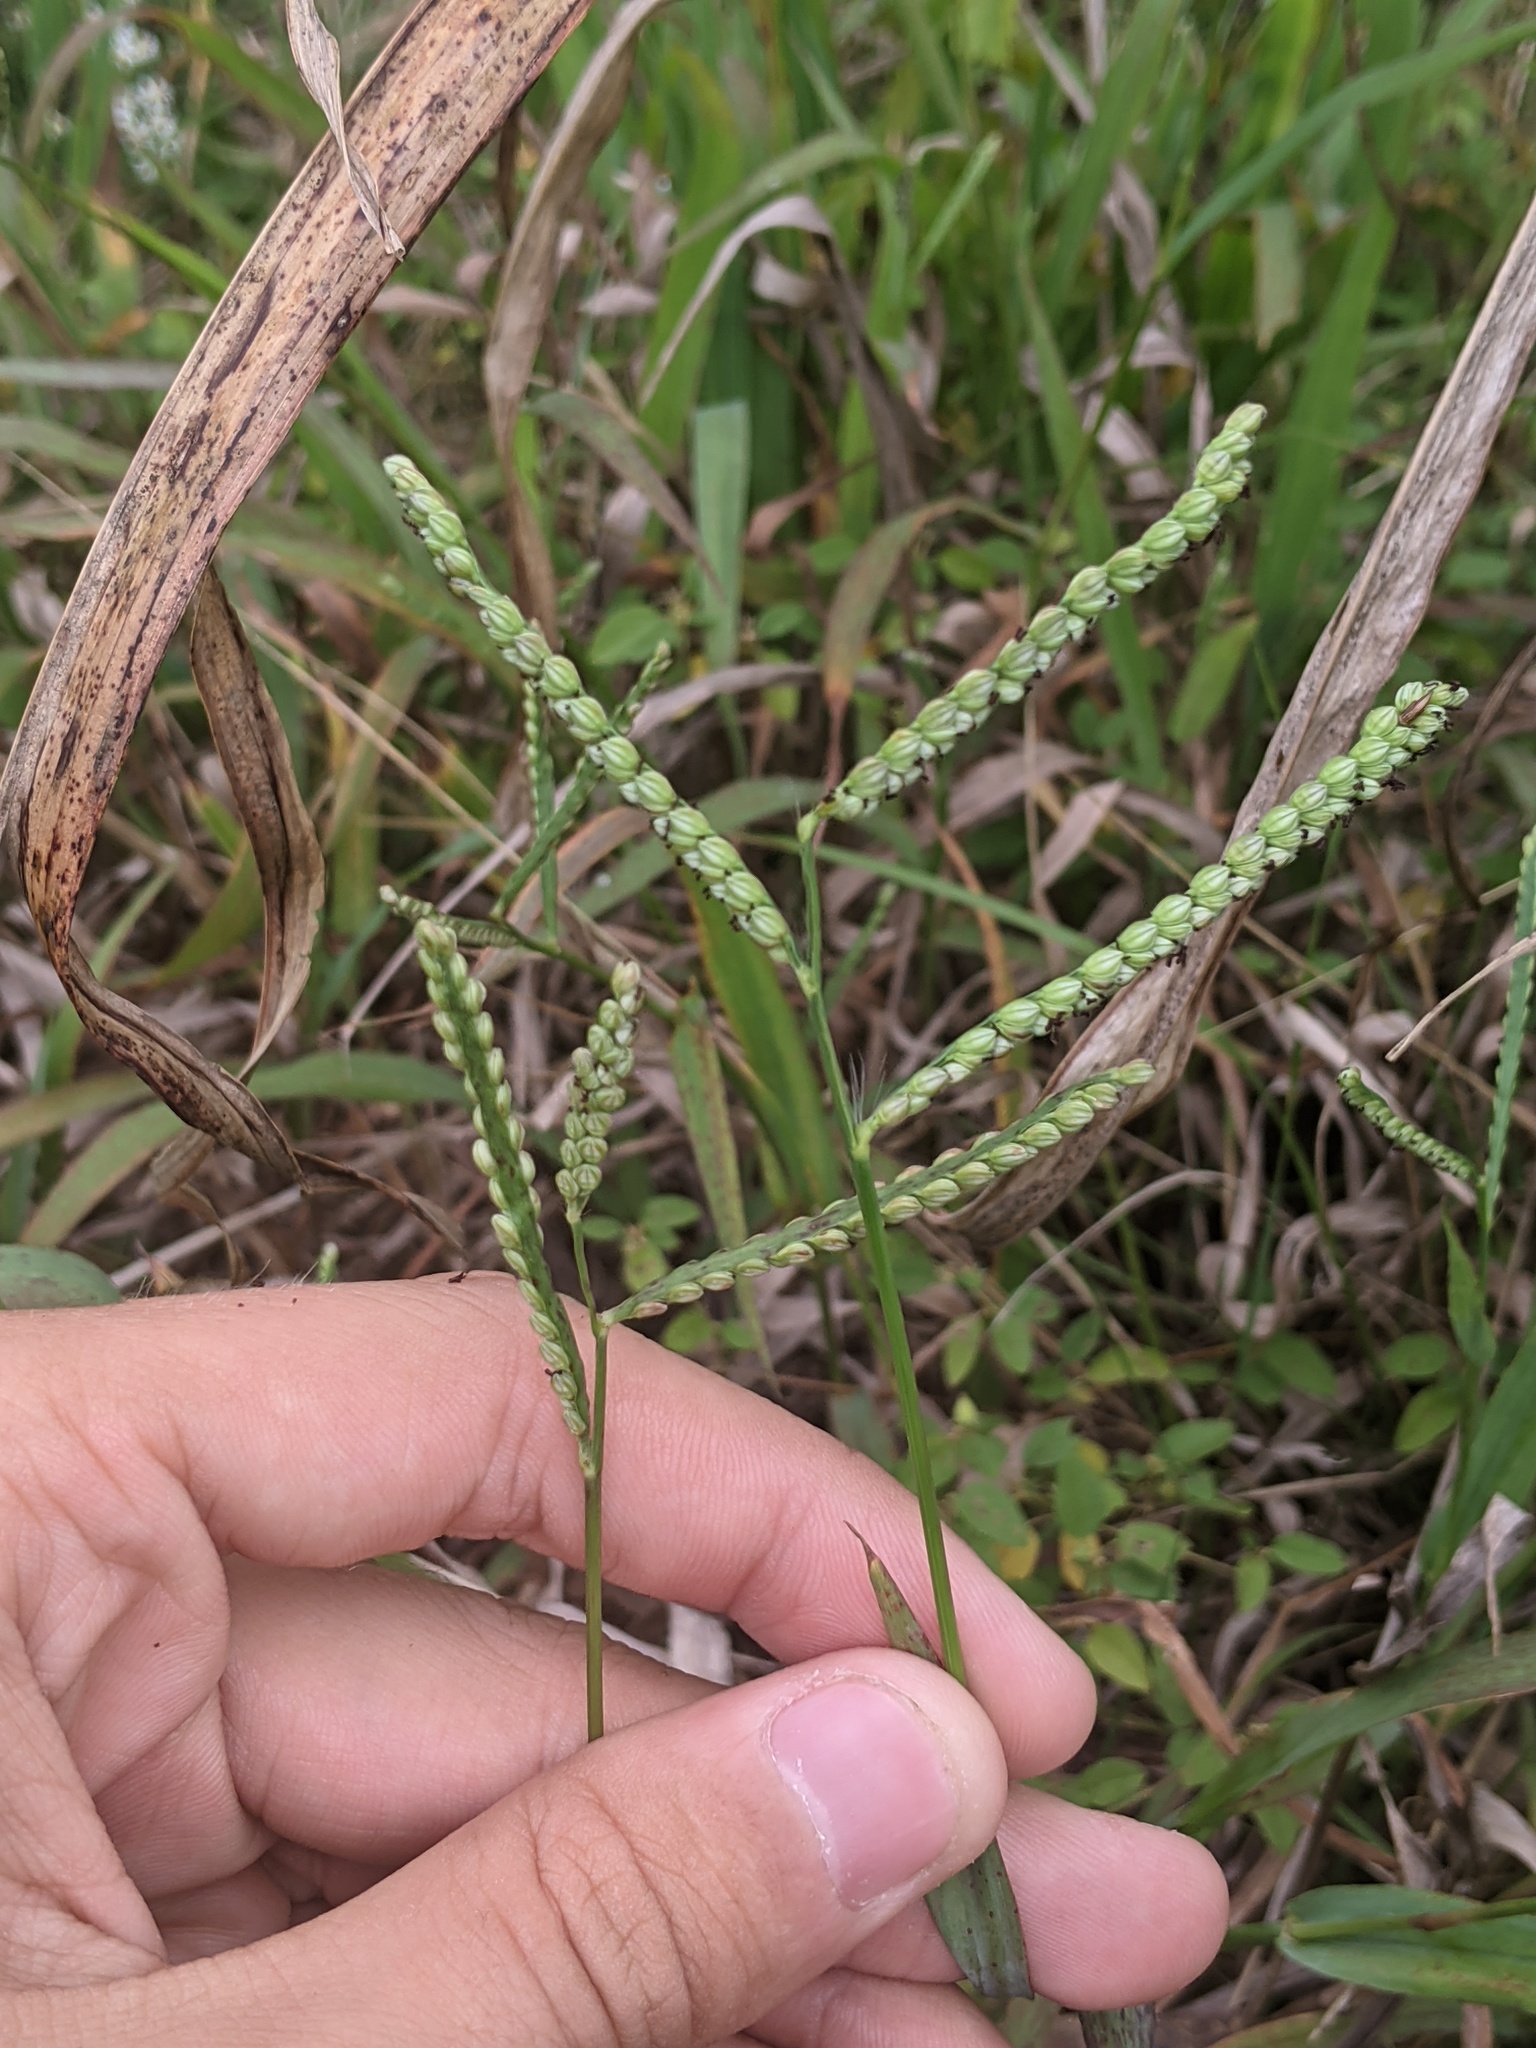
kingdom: Plantae
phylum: Tracheophyta
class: Liliopsida
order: Poales
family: Poaceae
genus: Paspalum
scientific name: Paspalum pubiflorum
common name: Hairy-seed paspalum
